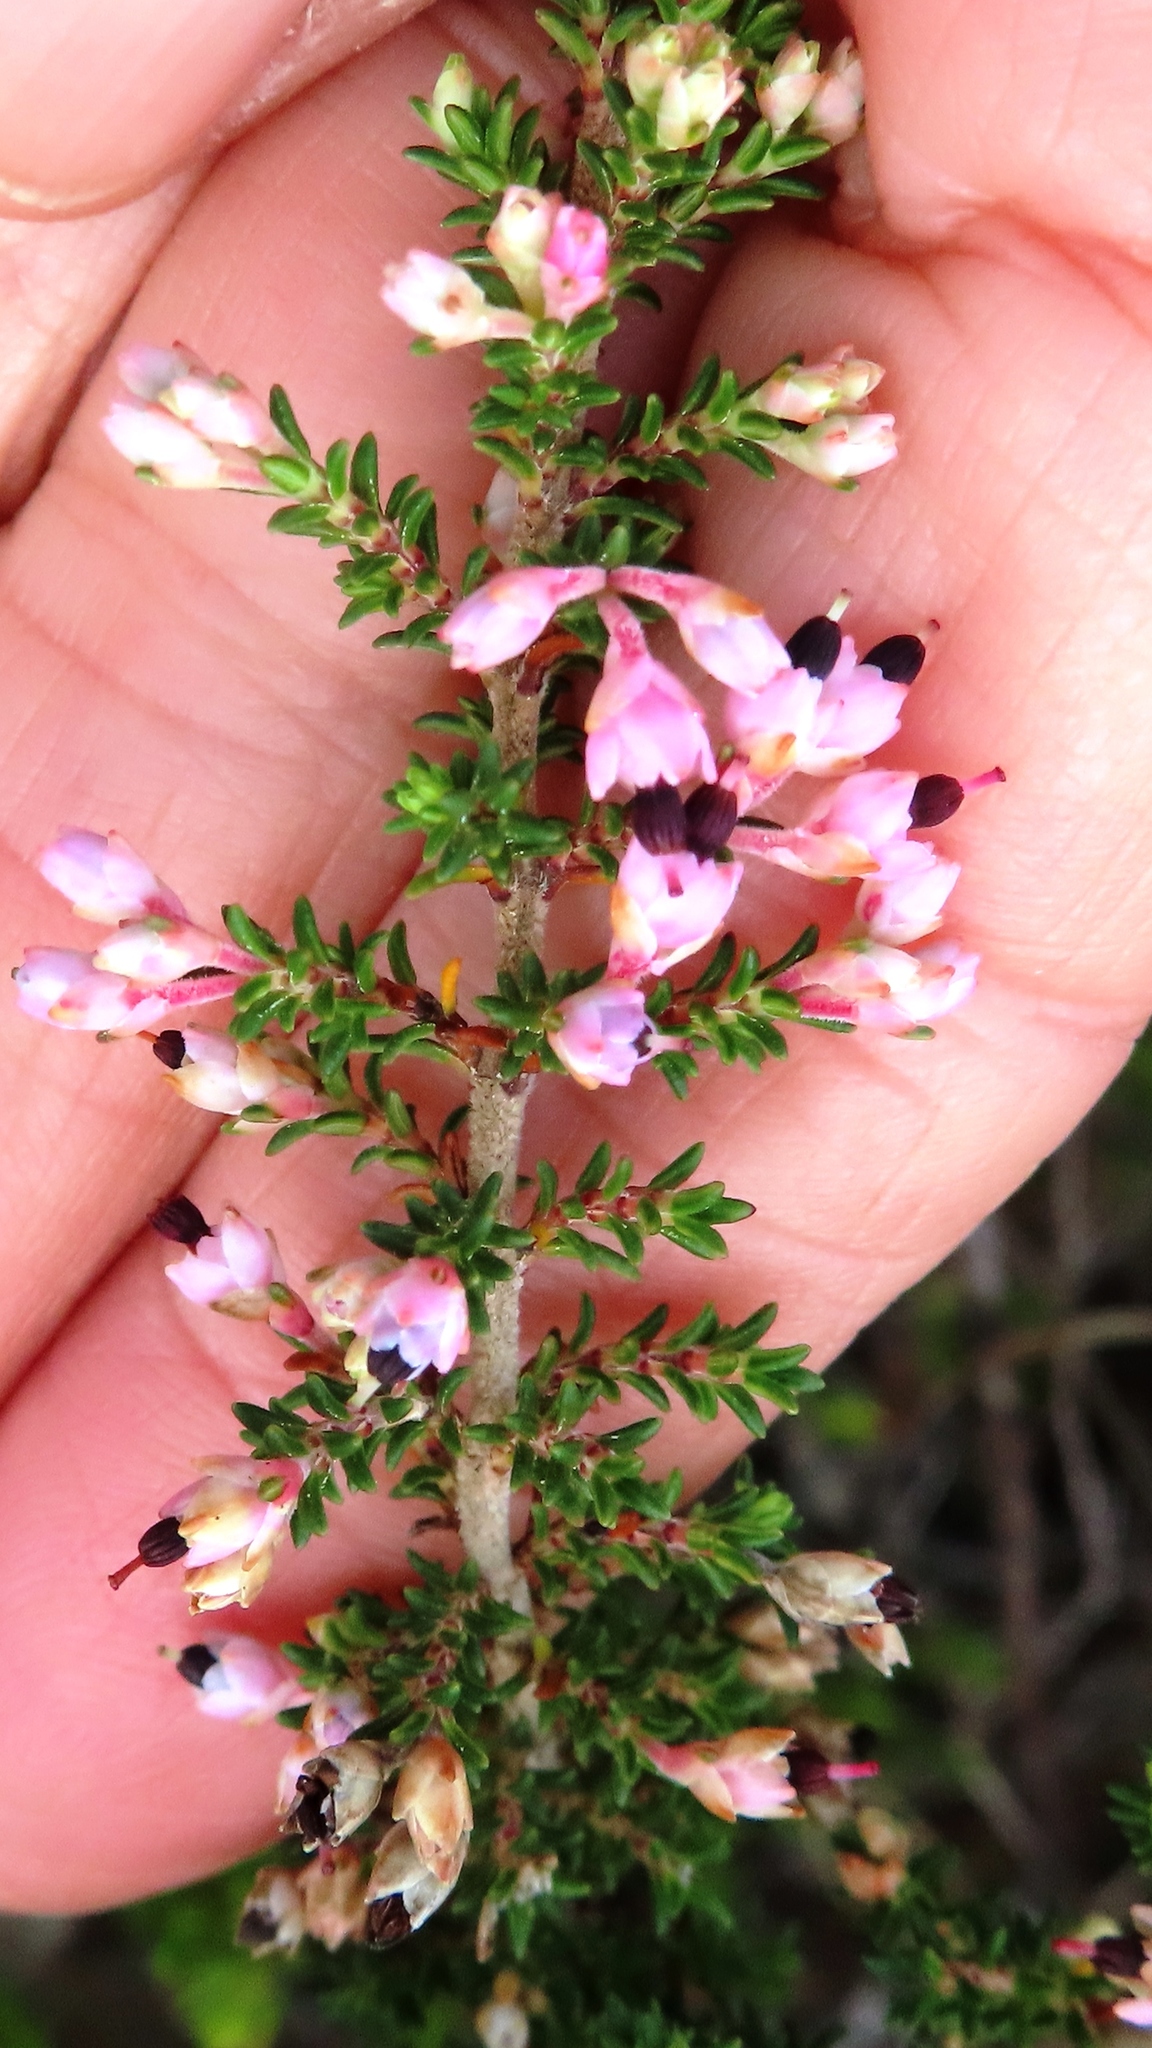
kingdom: Plantae
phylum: Tracheophyta
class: Magnoliopsida
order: Ericales
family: Ericaceae
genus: Erica
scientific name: Erica placentiflora
